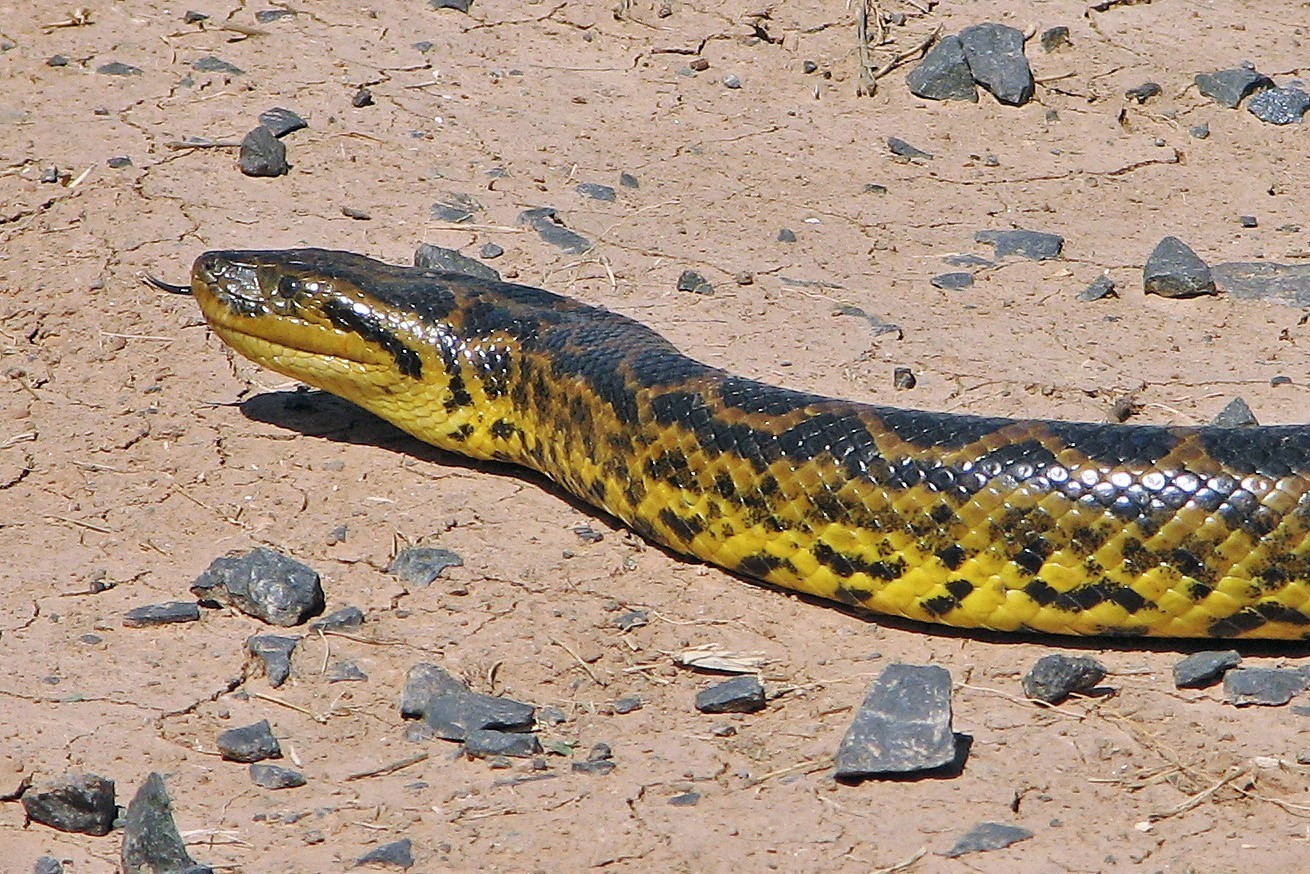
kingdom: Animalia
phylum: Chordata
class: Squamata
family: Boidae
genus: Eunectes
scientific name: Eunectes notaeus
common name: Yellow anaconda
